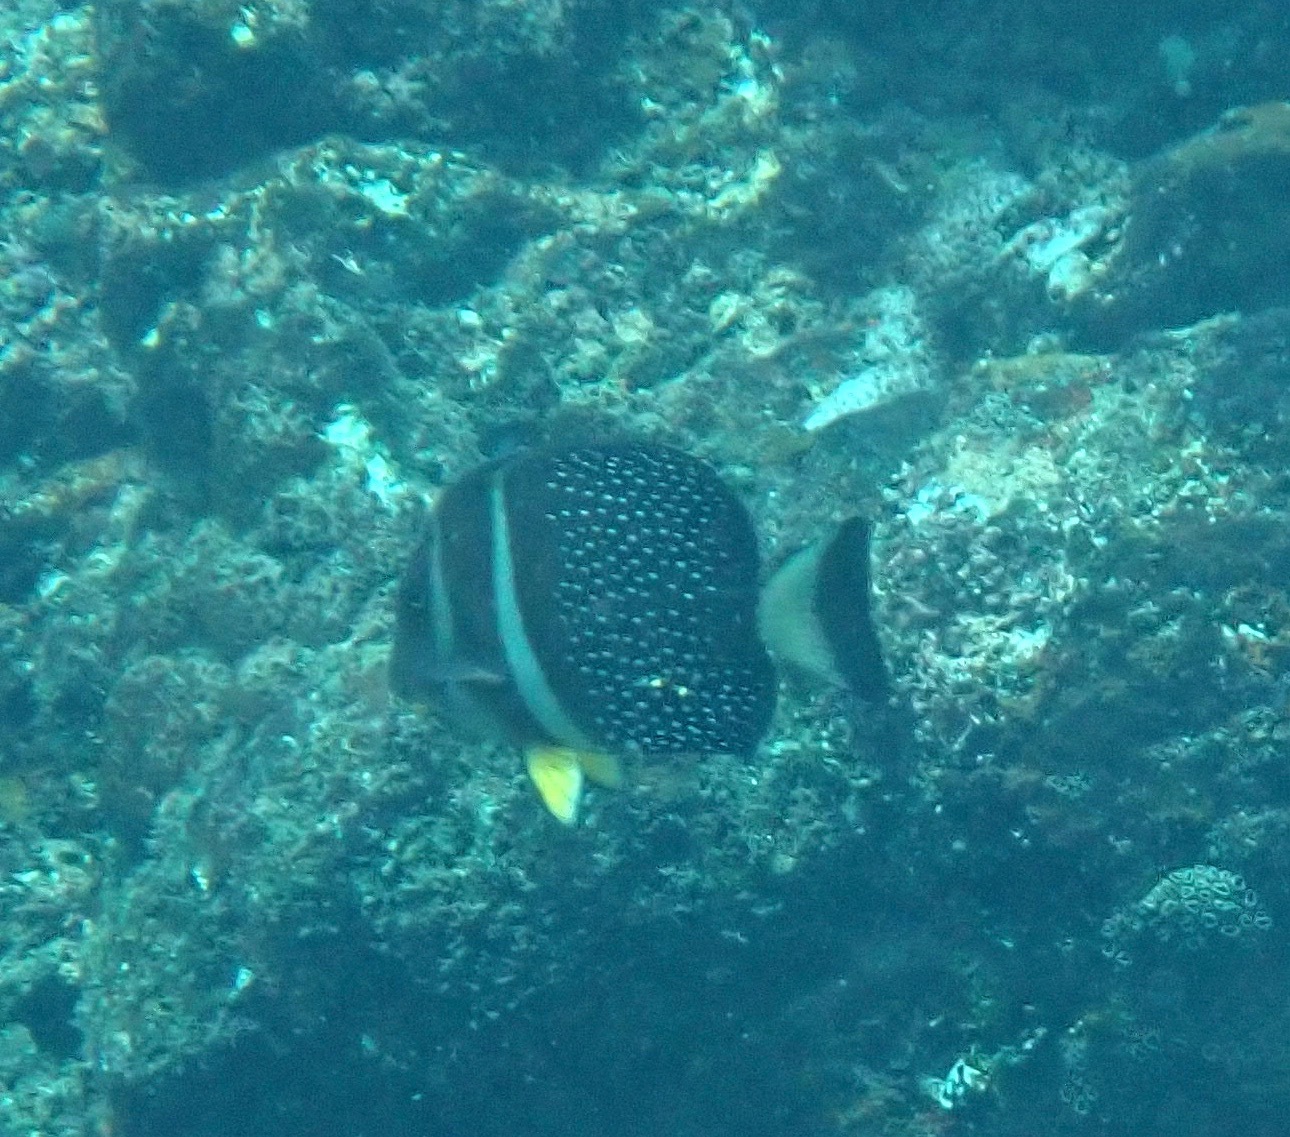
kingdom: Animalia
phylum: Chordata
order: Perciformes
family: Acanthuridae
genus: Acanthurus
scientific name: Acanthurus guttatus
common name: Whitespotted surgeonfish
